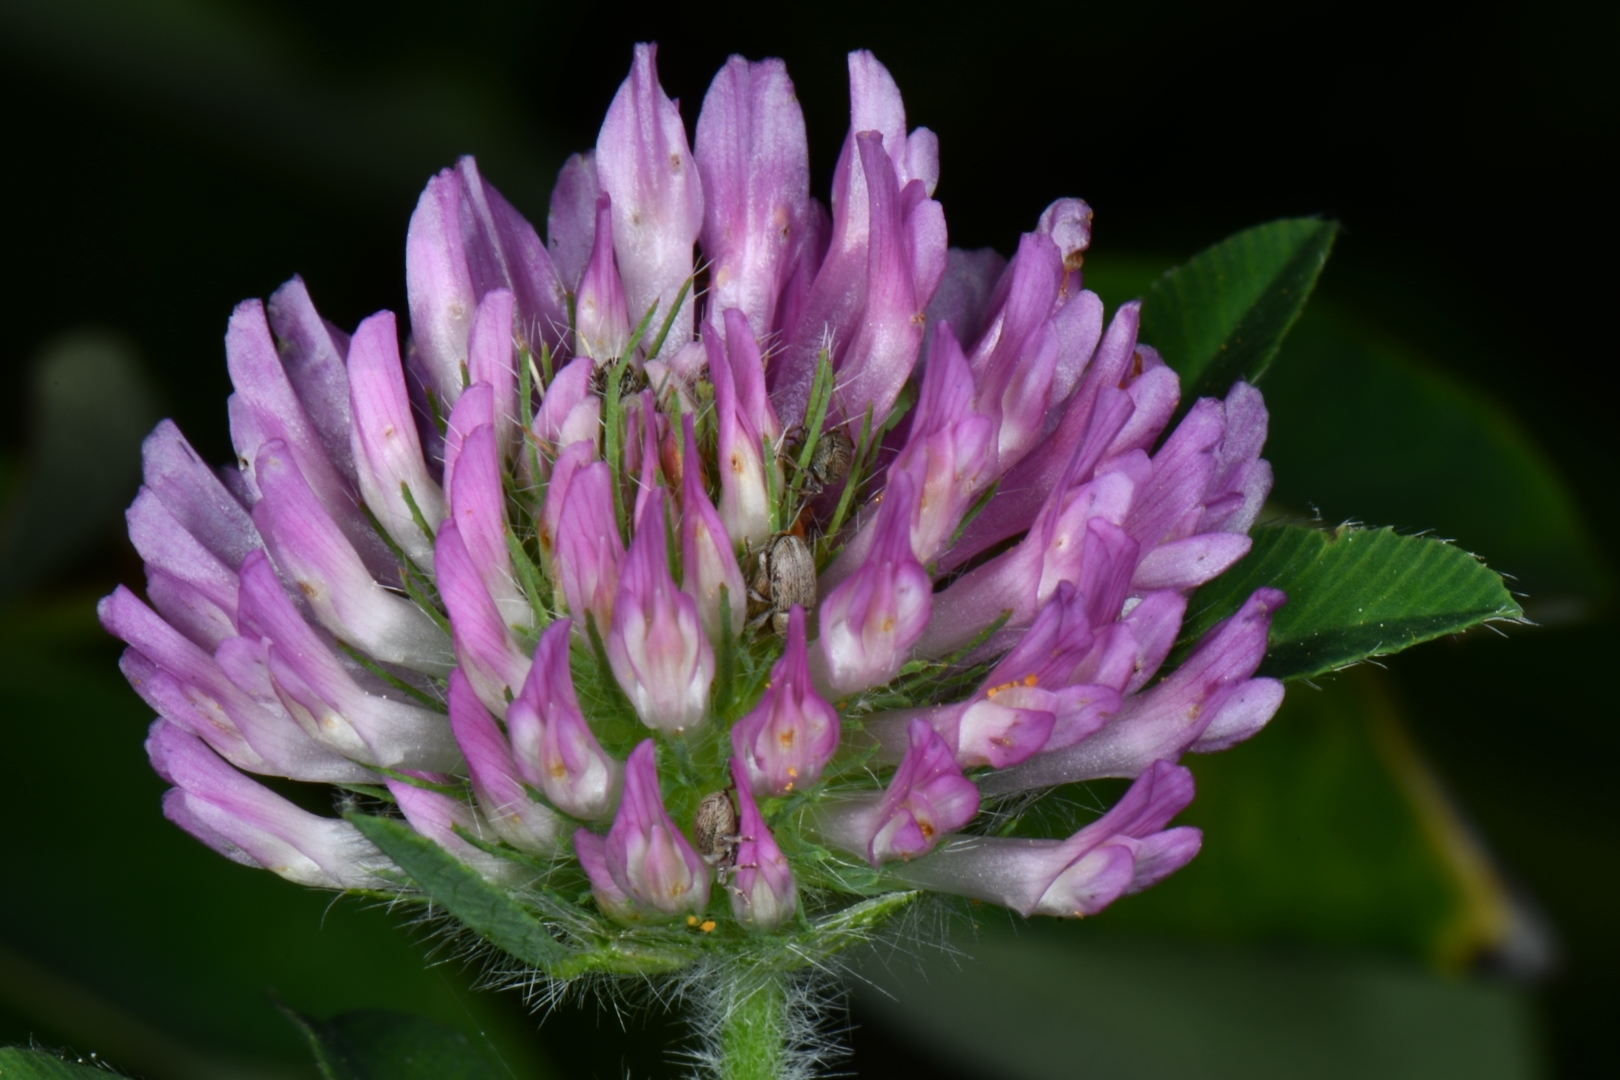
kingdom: Plantae
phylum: Tracheophyta
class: Magnoliopsida
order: Fabales
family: Fabaceae
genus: Trifolium
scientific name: Trifolium pratense
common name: Red clover
